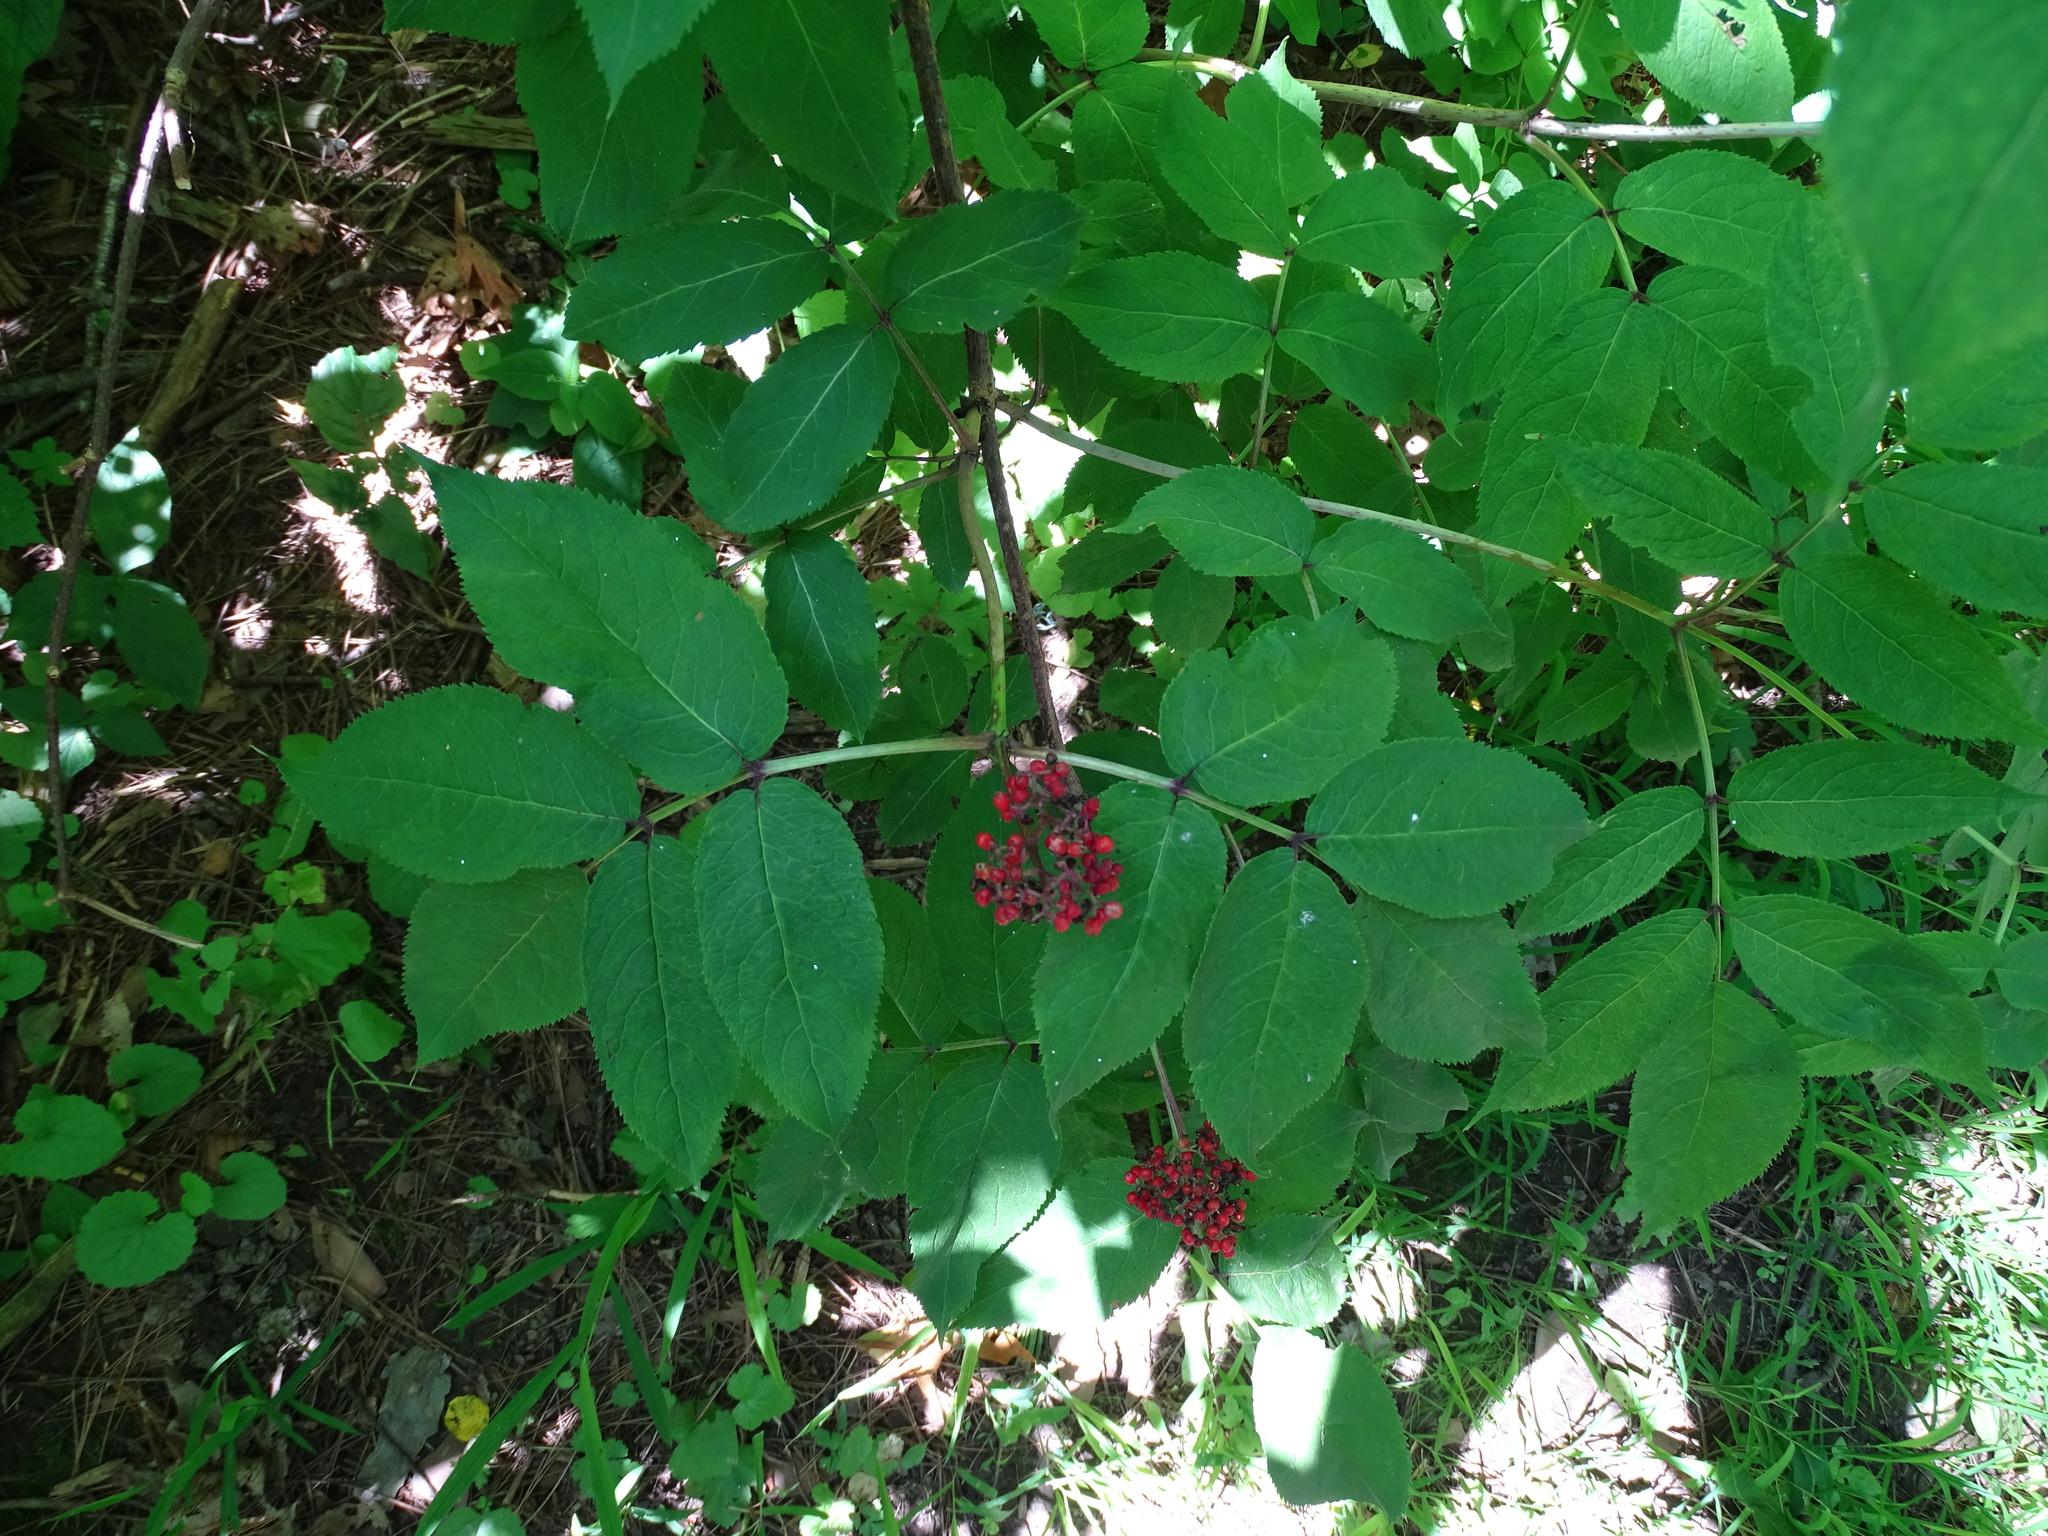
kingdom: Plantae
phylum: Tracheophyta
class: Magnoliopsida
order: Dipsacales
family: Viburnaceae
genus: Sambucus
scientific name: Sambucus racemosa
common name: Red-berried elder
